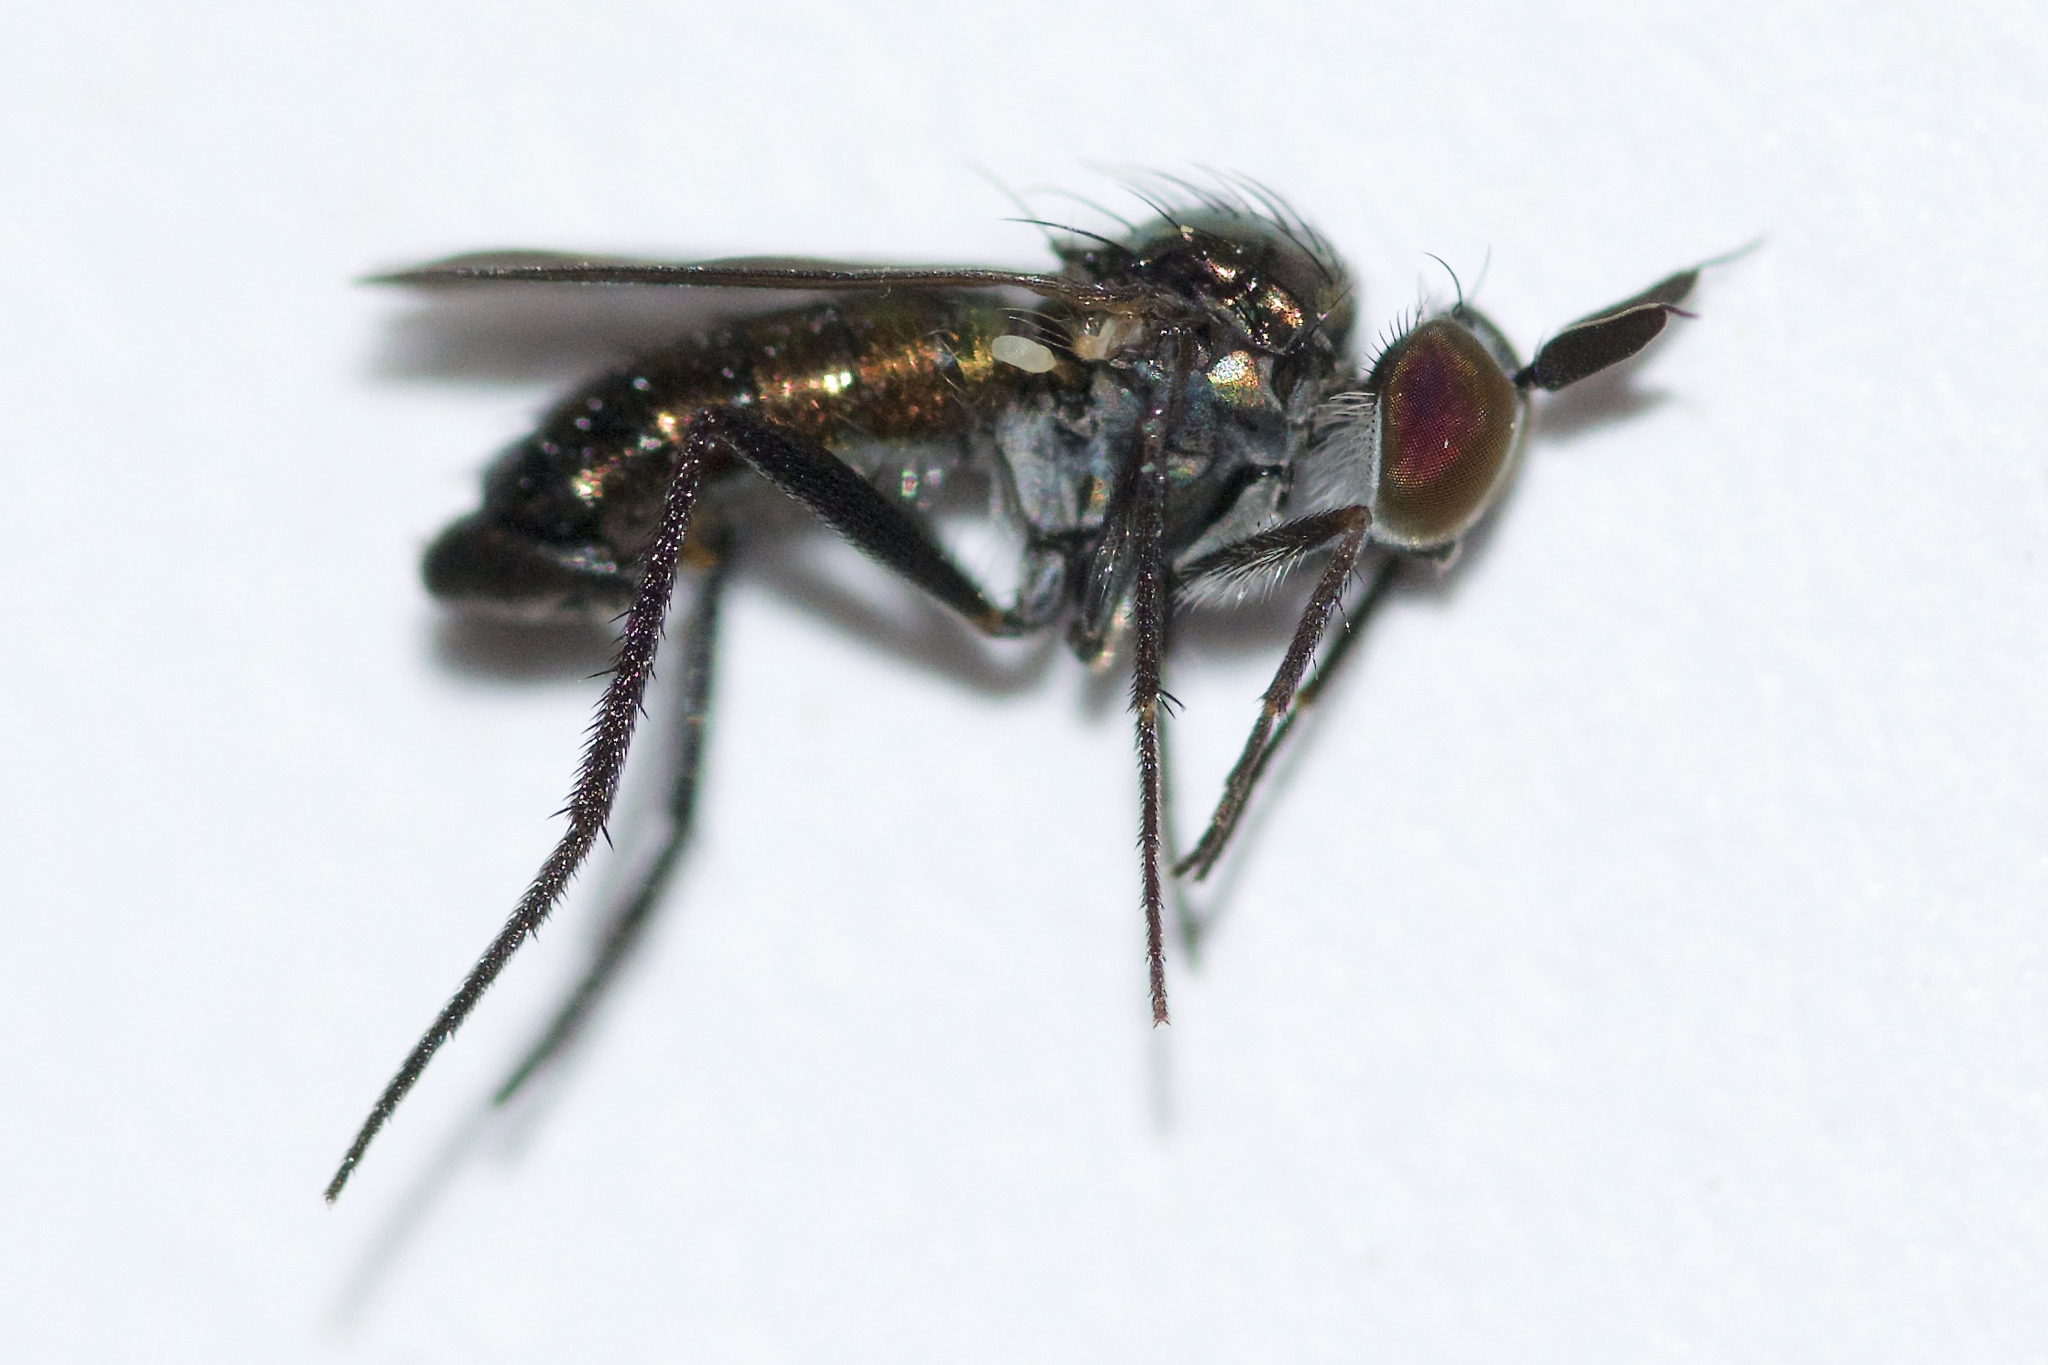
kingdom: Animalia
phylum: Arthropoda
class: Insecta
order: Diptera
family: Dolichopodidae
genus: Rhaphium
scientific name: Rhaphium melampus
